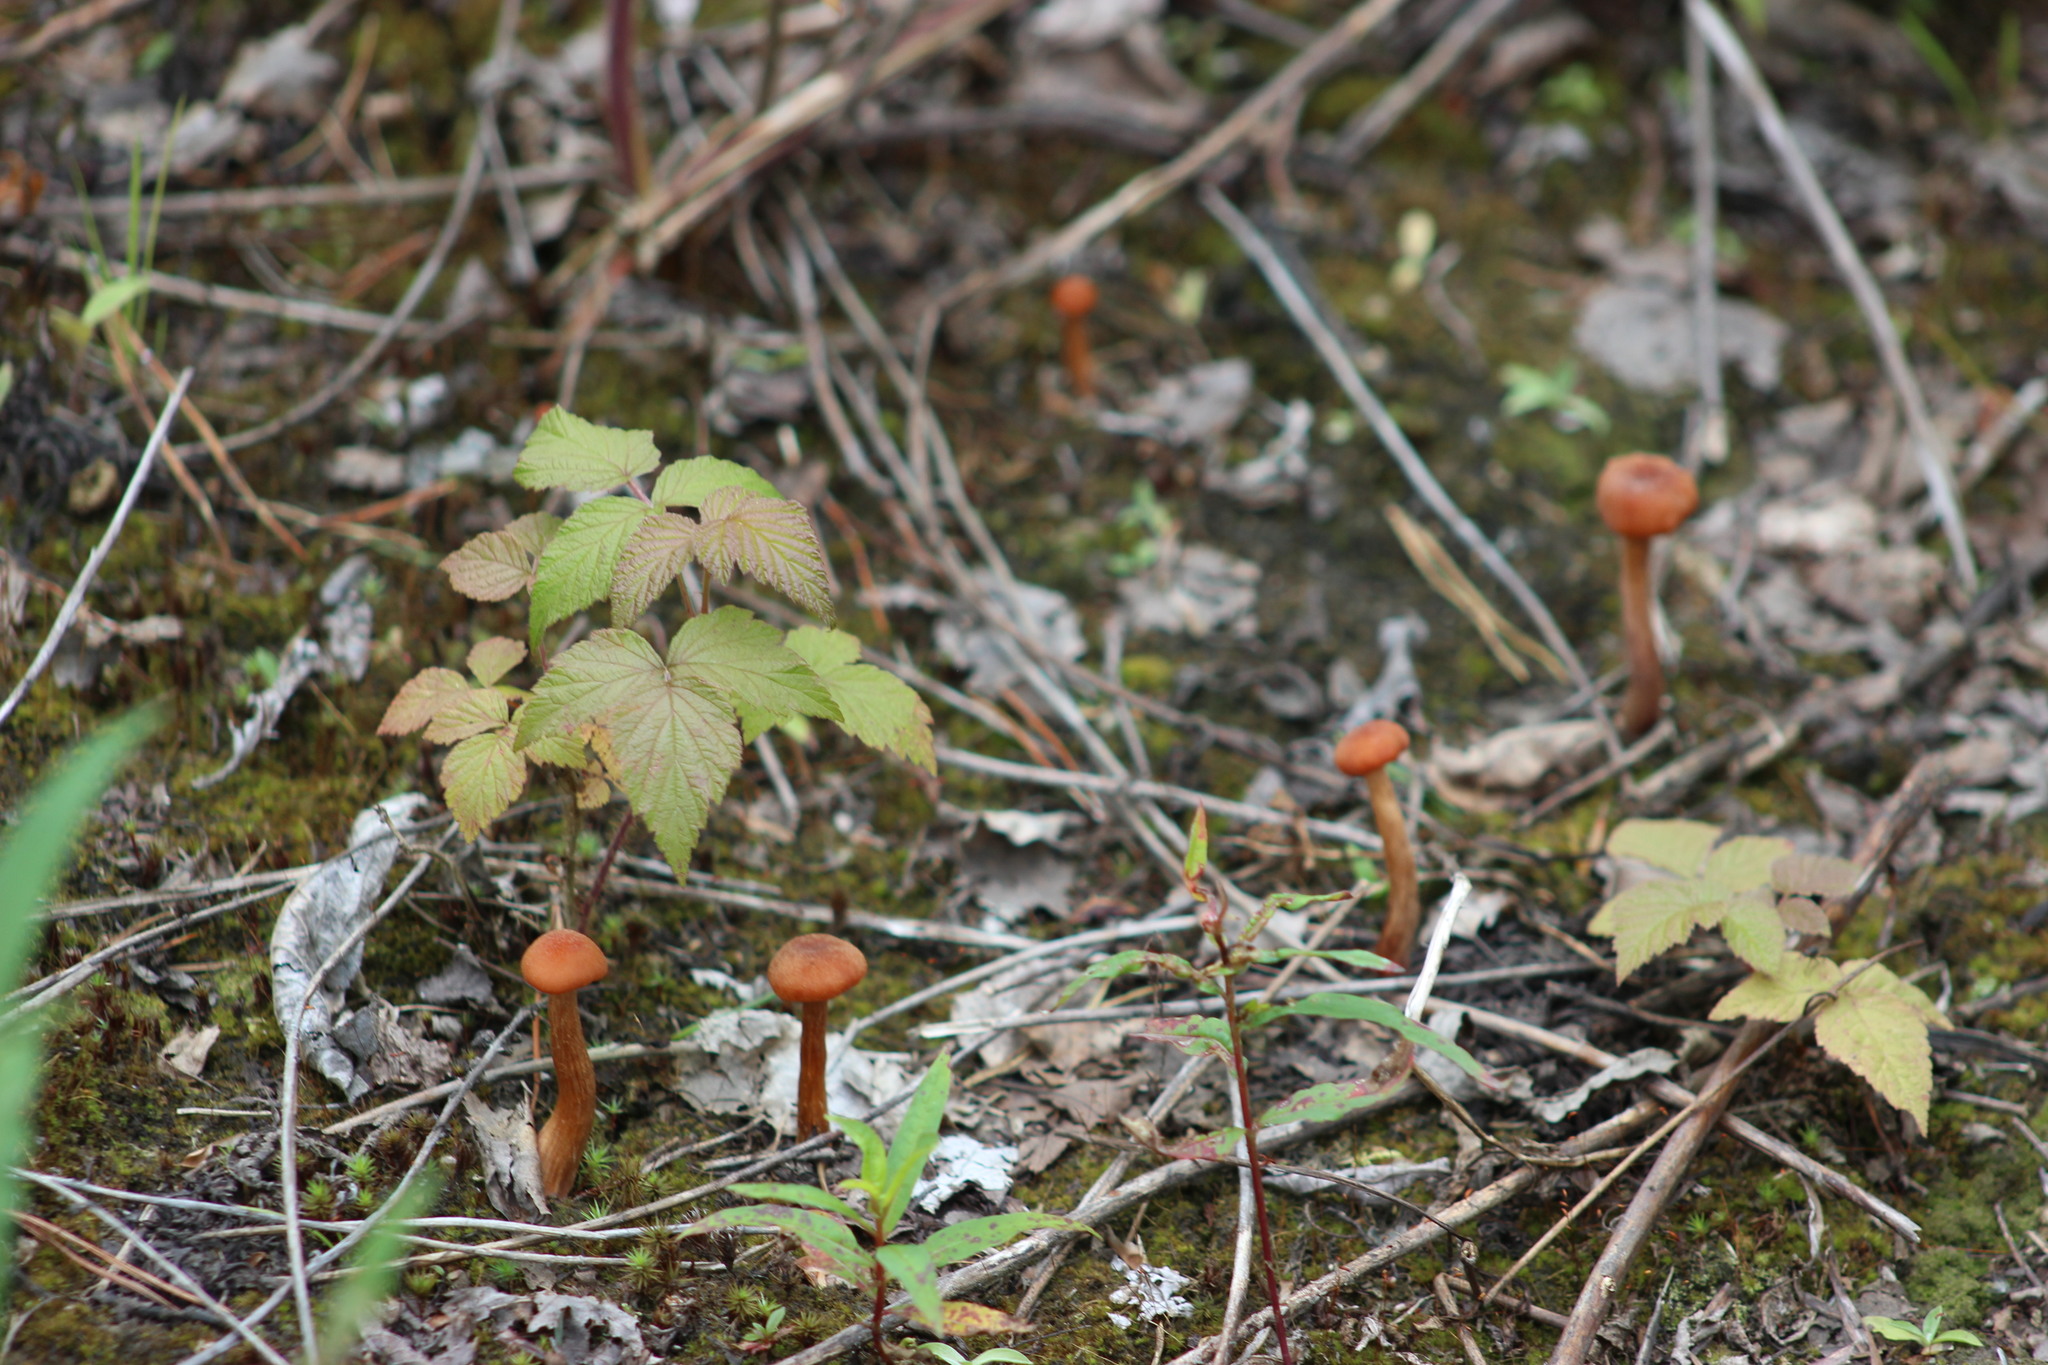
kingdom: Fungi
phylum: Basidiomycota
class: Agaricomycetes
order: Agaricales
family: Hydnangiaceae
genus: Laccaria
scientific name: Laccaria proxima
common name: Scurfy deceiver
